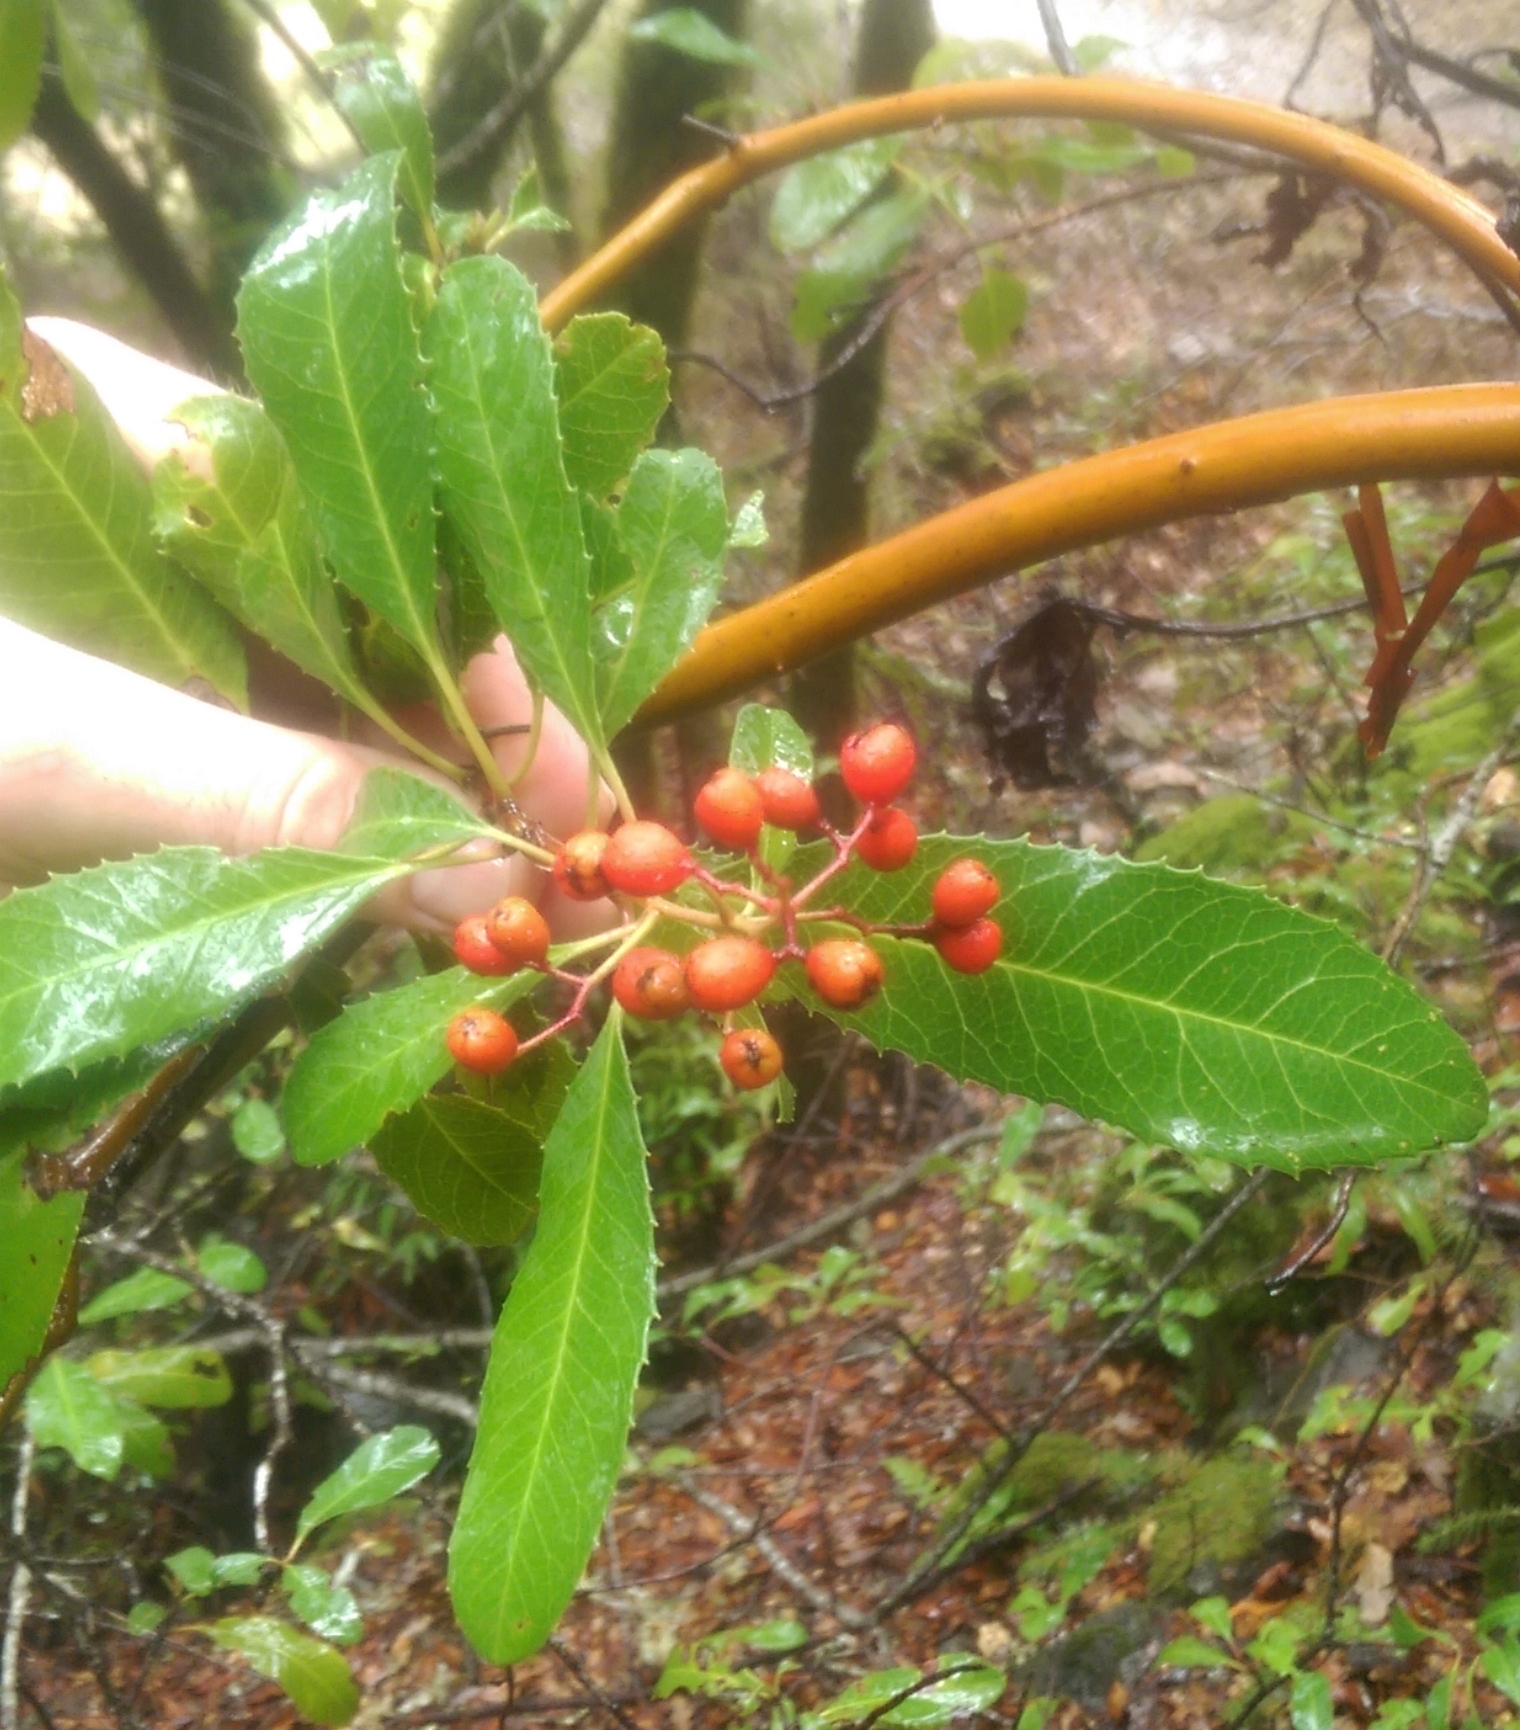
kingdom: Plantae
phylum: Tracheophyta
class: Magnoliopsida
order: Rosales
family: Rosaceae
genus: Heteromeles
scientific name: Heteromeles arbutifolia
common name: California-holly
